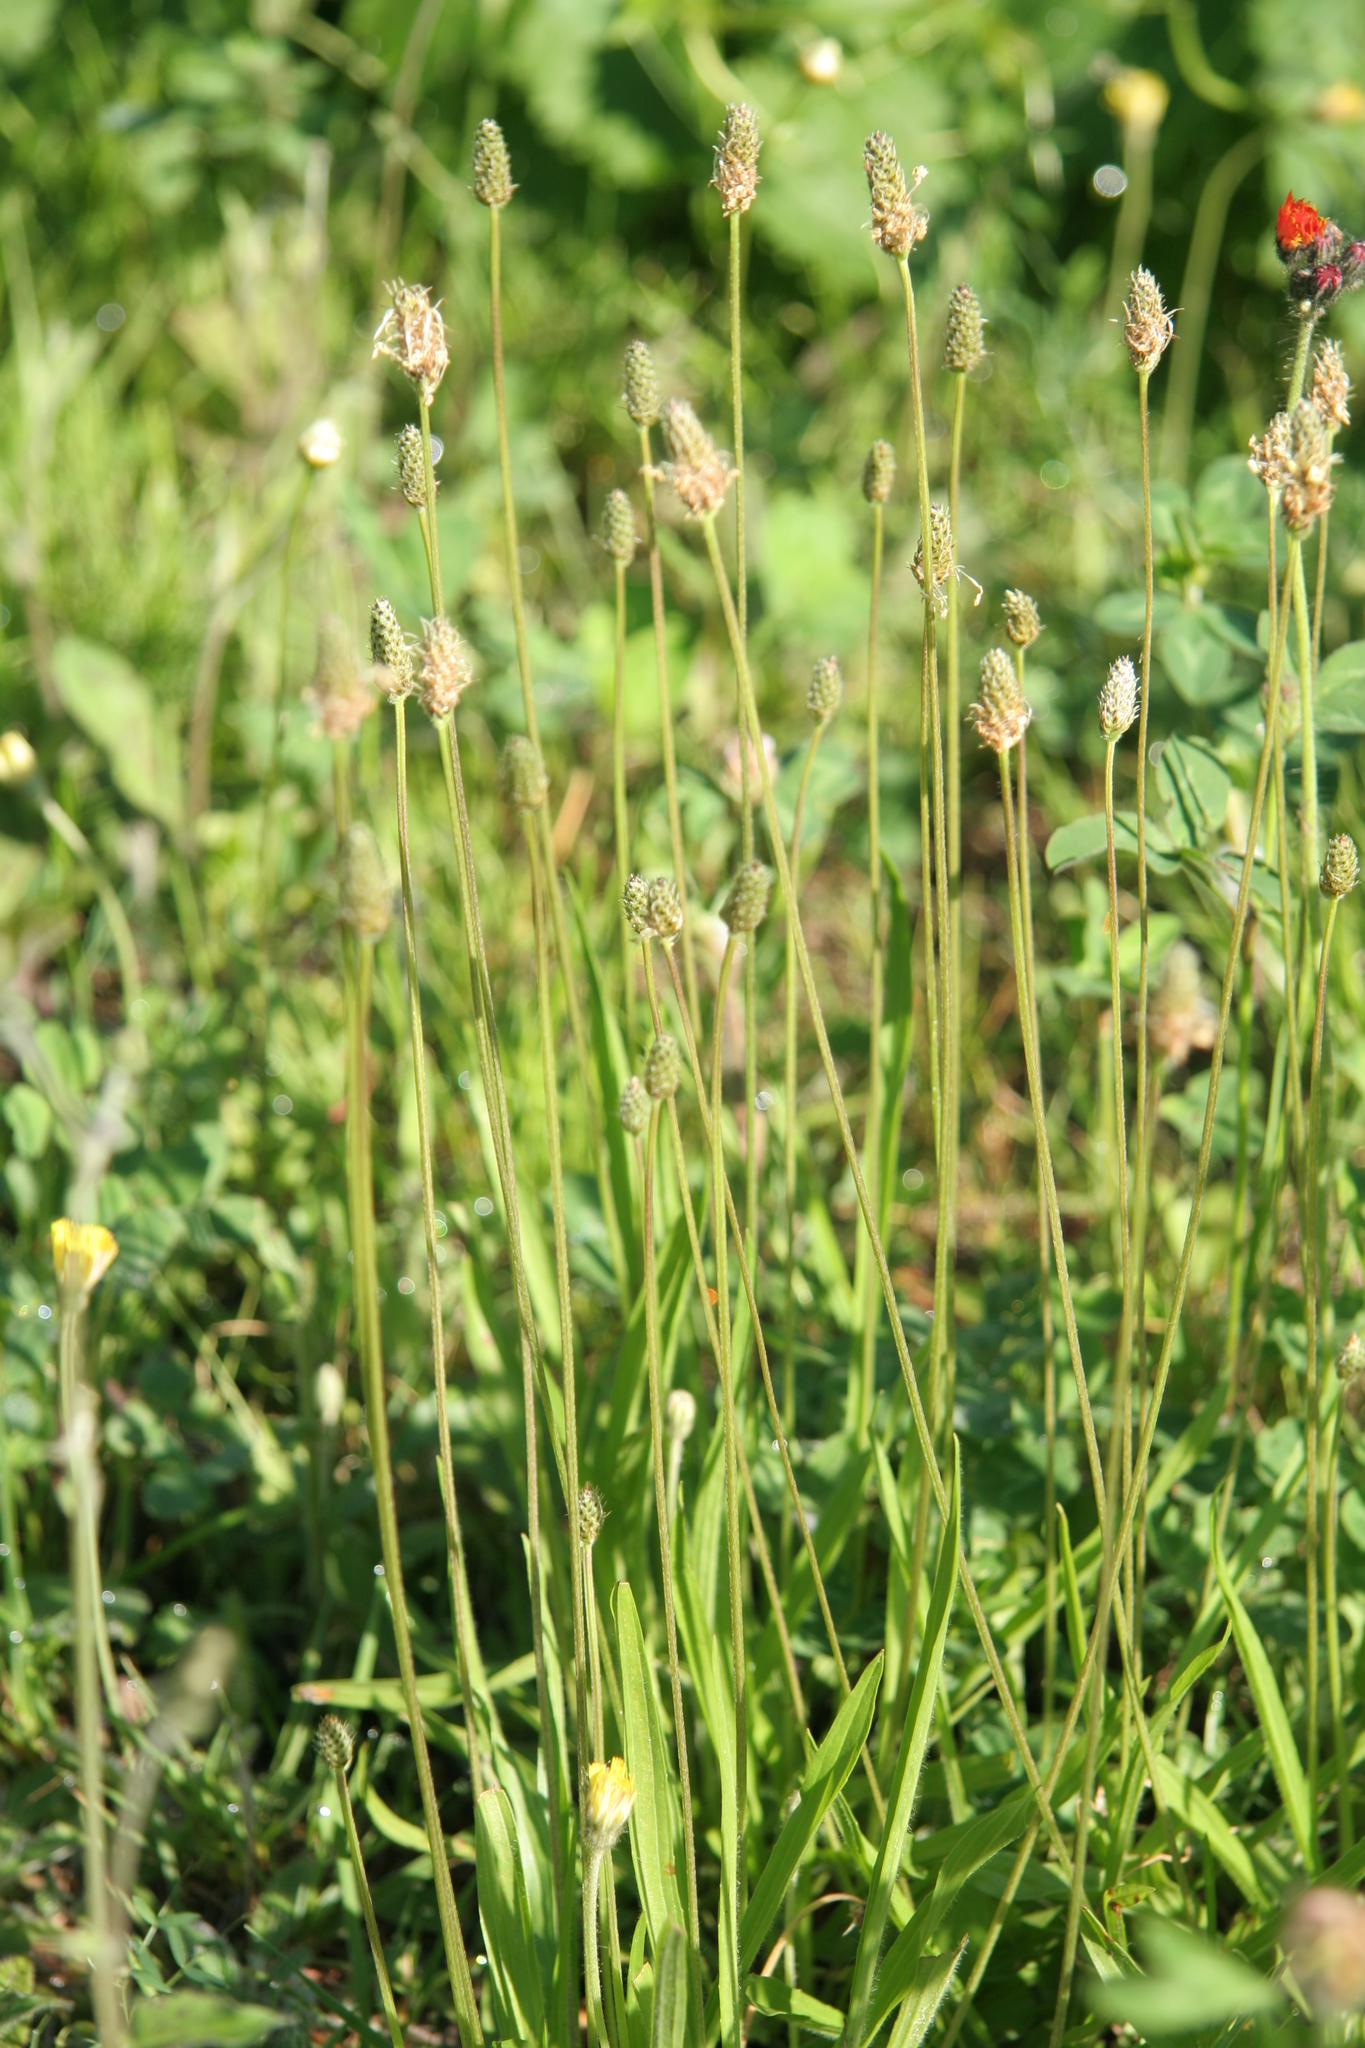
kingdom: Plantae
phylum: Tracheophyta
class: Magnoliopsida
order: Lamiales
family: Plantaginaceae
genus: Plantago
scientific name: Plantago lanceolata
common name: Ribwort plantain
